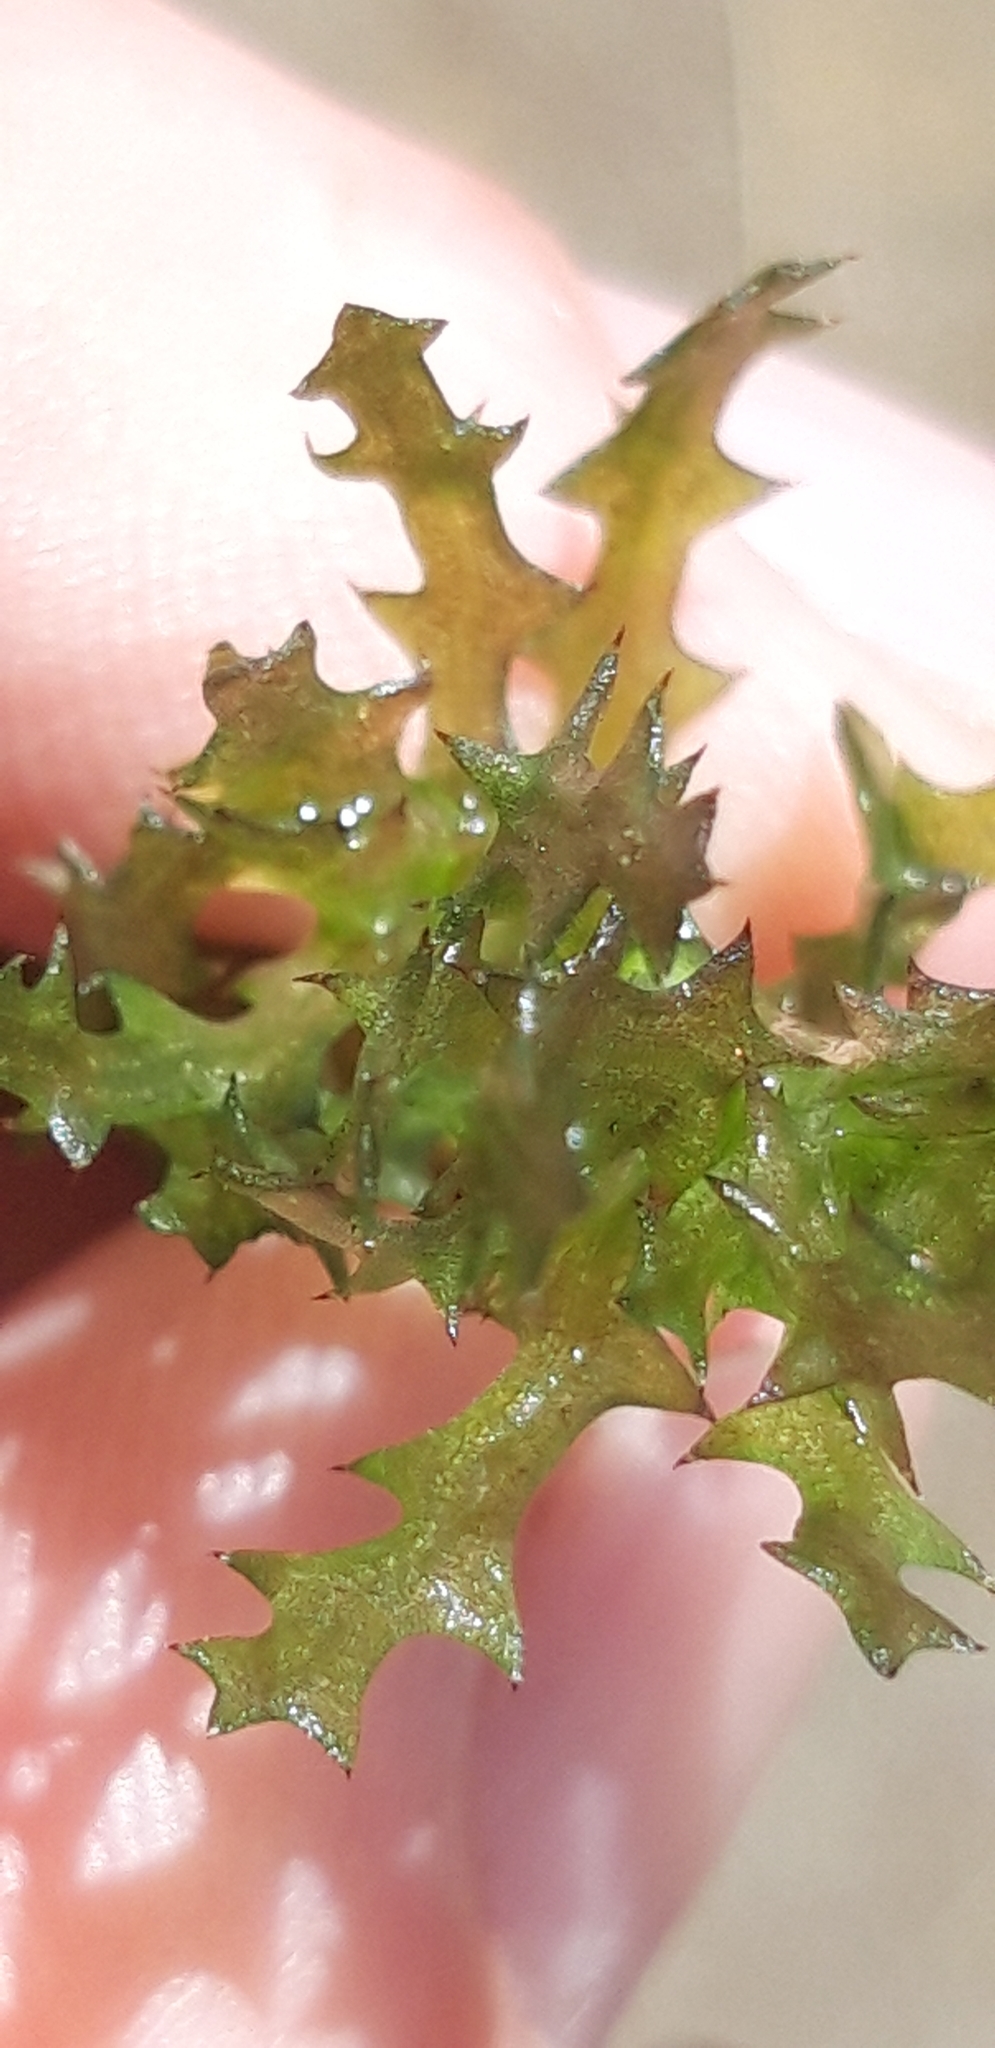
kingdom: Plantae
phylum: Tracheophyta
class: Liliopsida
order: Alismatales
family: Hydrocharitaceae
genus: Najas
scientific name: Najas marina
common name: Holly-leaved naiad
